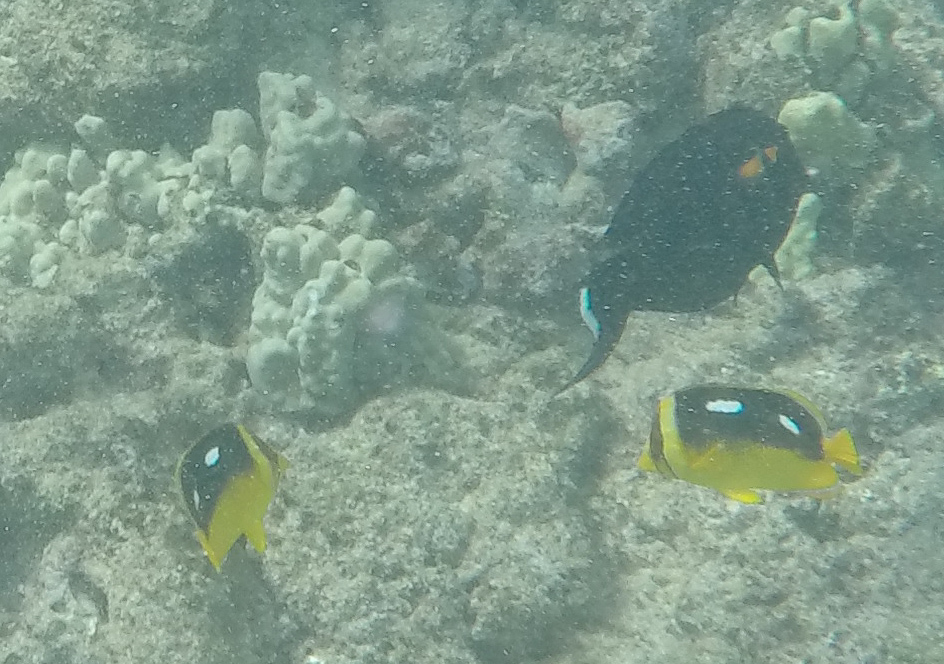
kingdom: Animalia
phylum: Chordata
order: Perciformes
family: Chaetodontidae
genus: Chaetodon
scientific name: Chaetodon quadrimaculatus
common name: Fourspot butterflyfish
